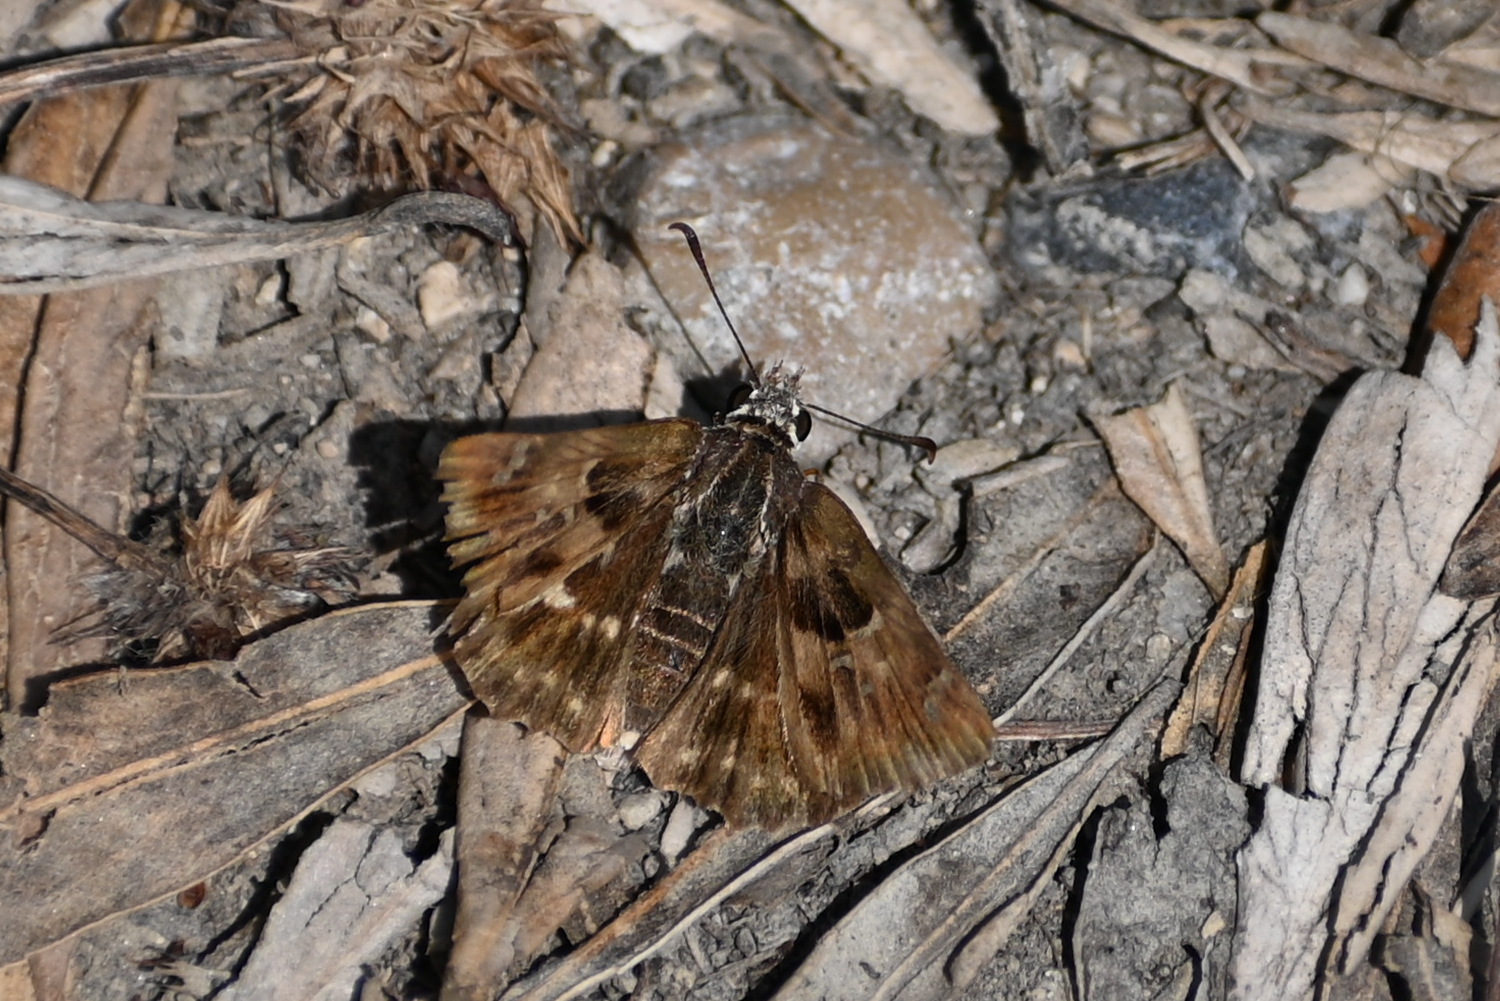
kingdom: Animalia
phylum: Arthropoda
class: Insecta
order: Lepidoptera
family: Hesperiidae
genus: Carcharodus
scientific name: Carcharodus alceae
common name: Mallow skipper
